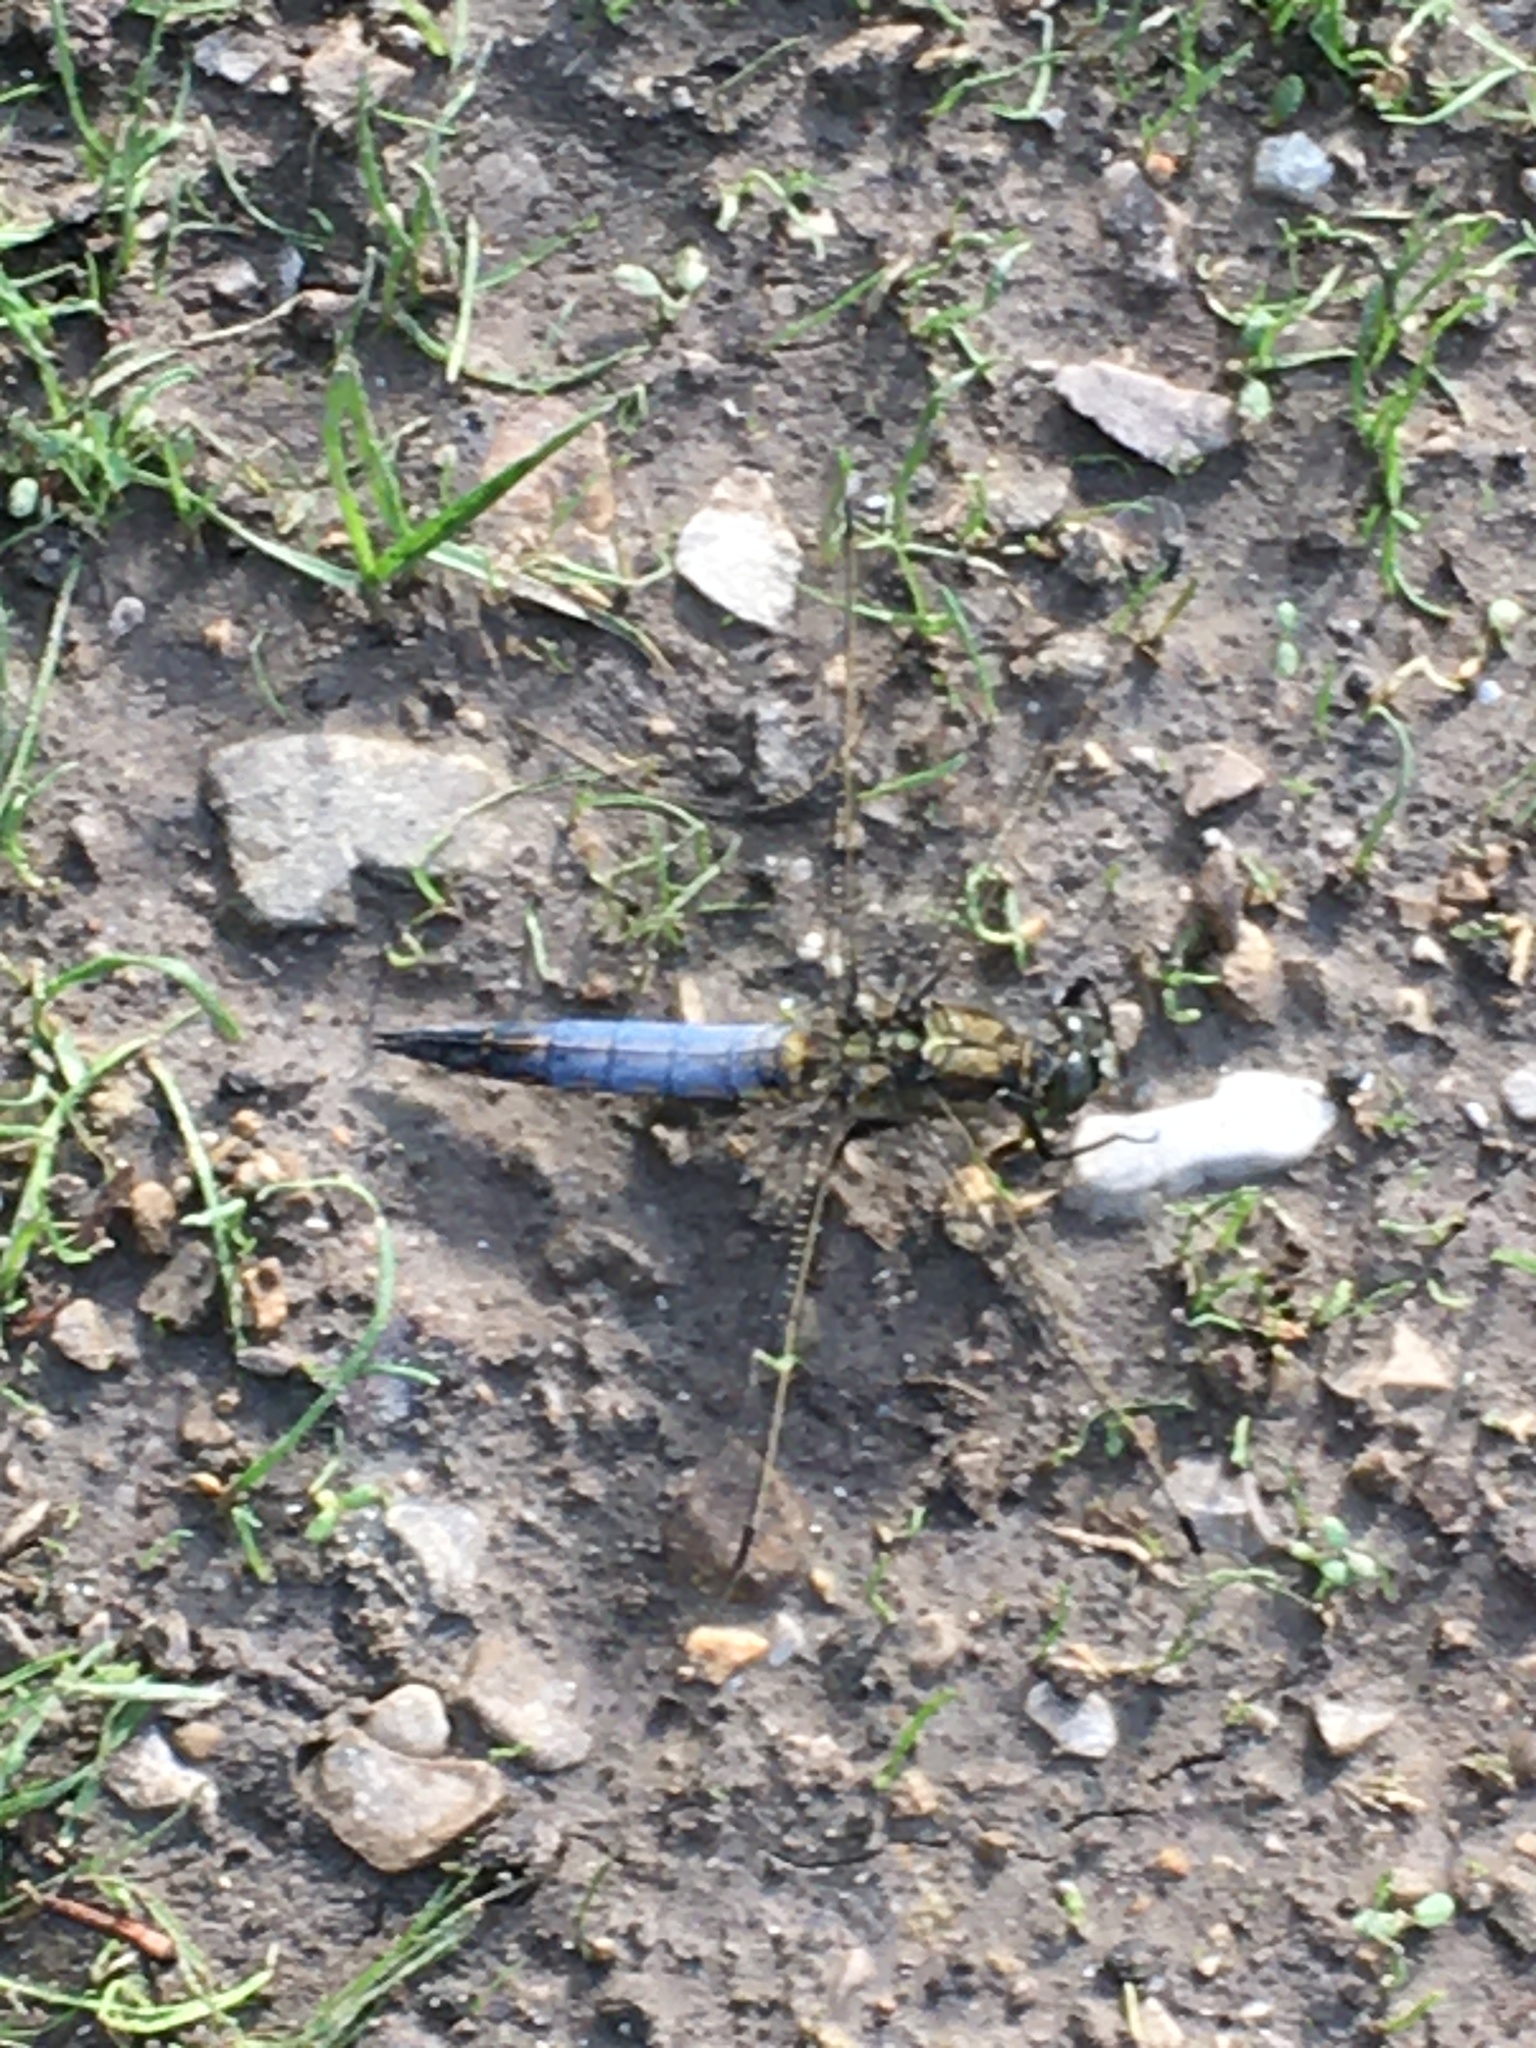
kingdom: Animalia
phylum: Arthropoda
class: Insecta
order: Odonata
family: Libellulidae
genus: Orthetrum
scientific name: Orthetrum cancellatum
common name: Black-tailed skimmer
